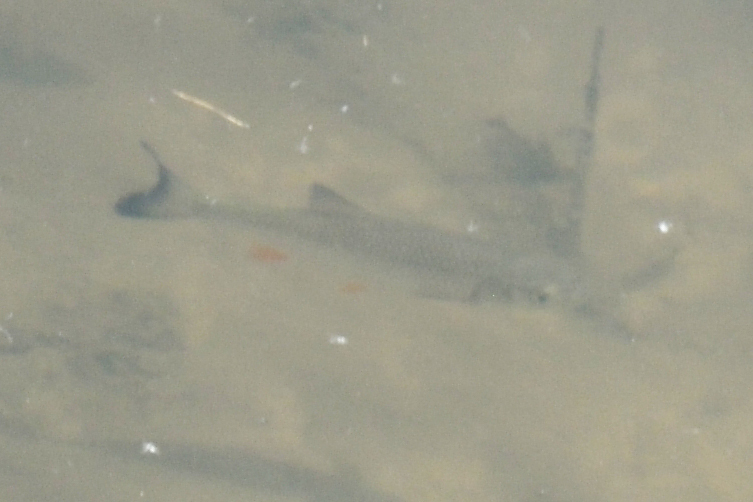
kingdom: Animalia
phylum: Chordata
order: Cypriniformes
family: Cyprinidae
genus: Squalius
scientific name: Squalius cephalus
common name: Chub
